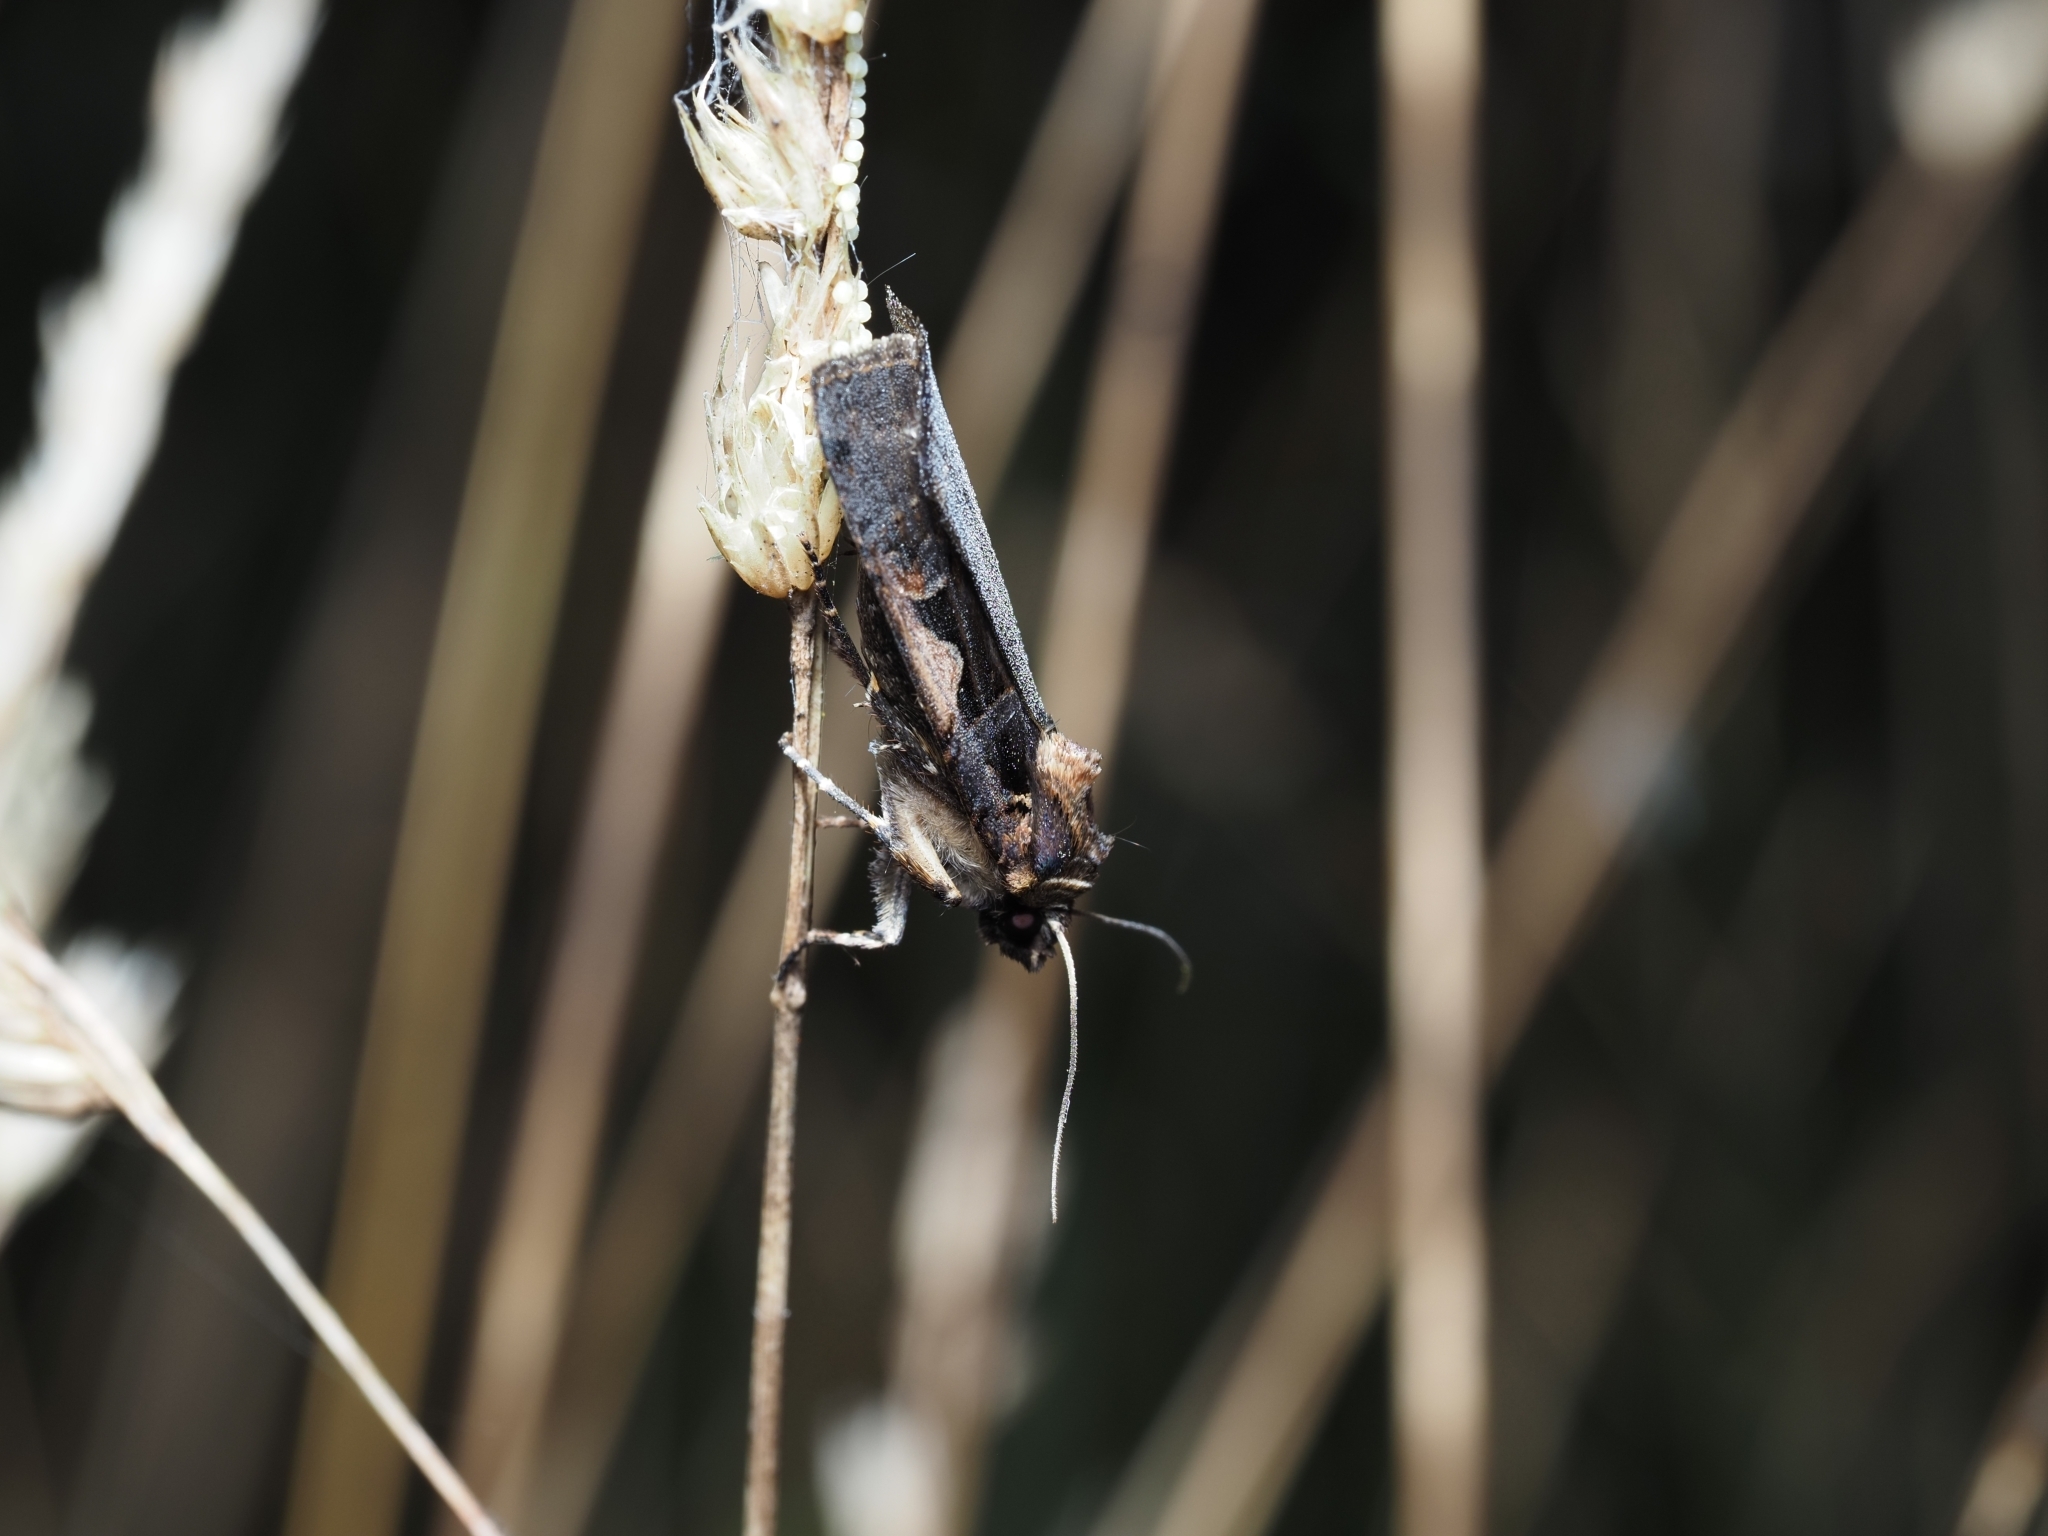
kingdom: Animalia
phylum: Arthropoda
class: Insecta
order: Lepidoptera
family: Noctuidae
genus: Xestia
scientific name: Xestia c-nigrum
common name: Setaceous hebrew character
